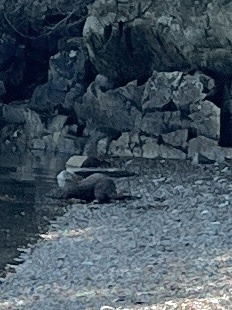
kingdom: Animalia
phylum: Chordata
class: Mammalia
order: Carnivora
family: Mustelidae
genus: Lontra
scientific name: Lontra canadensis
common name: North american river otter
